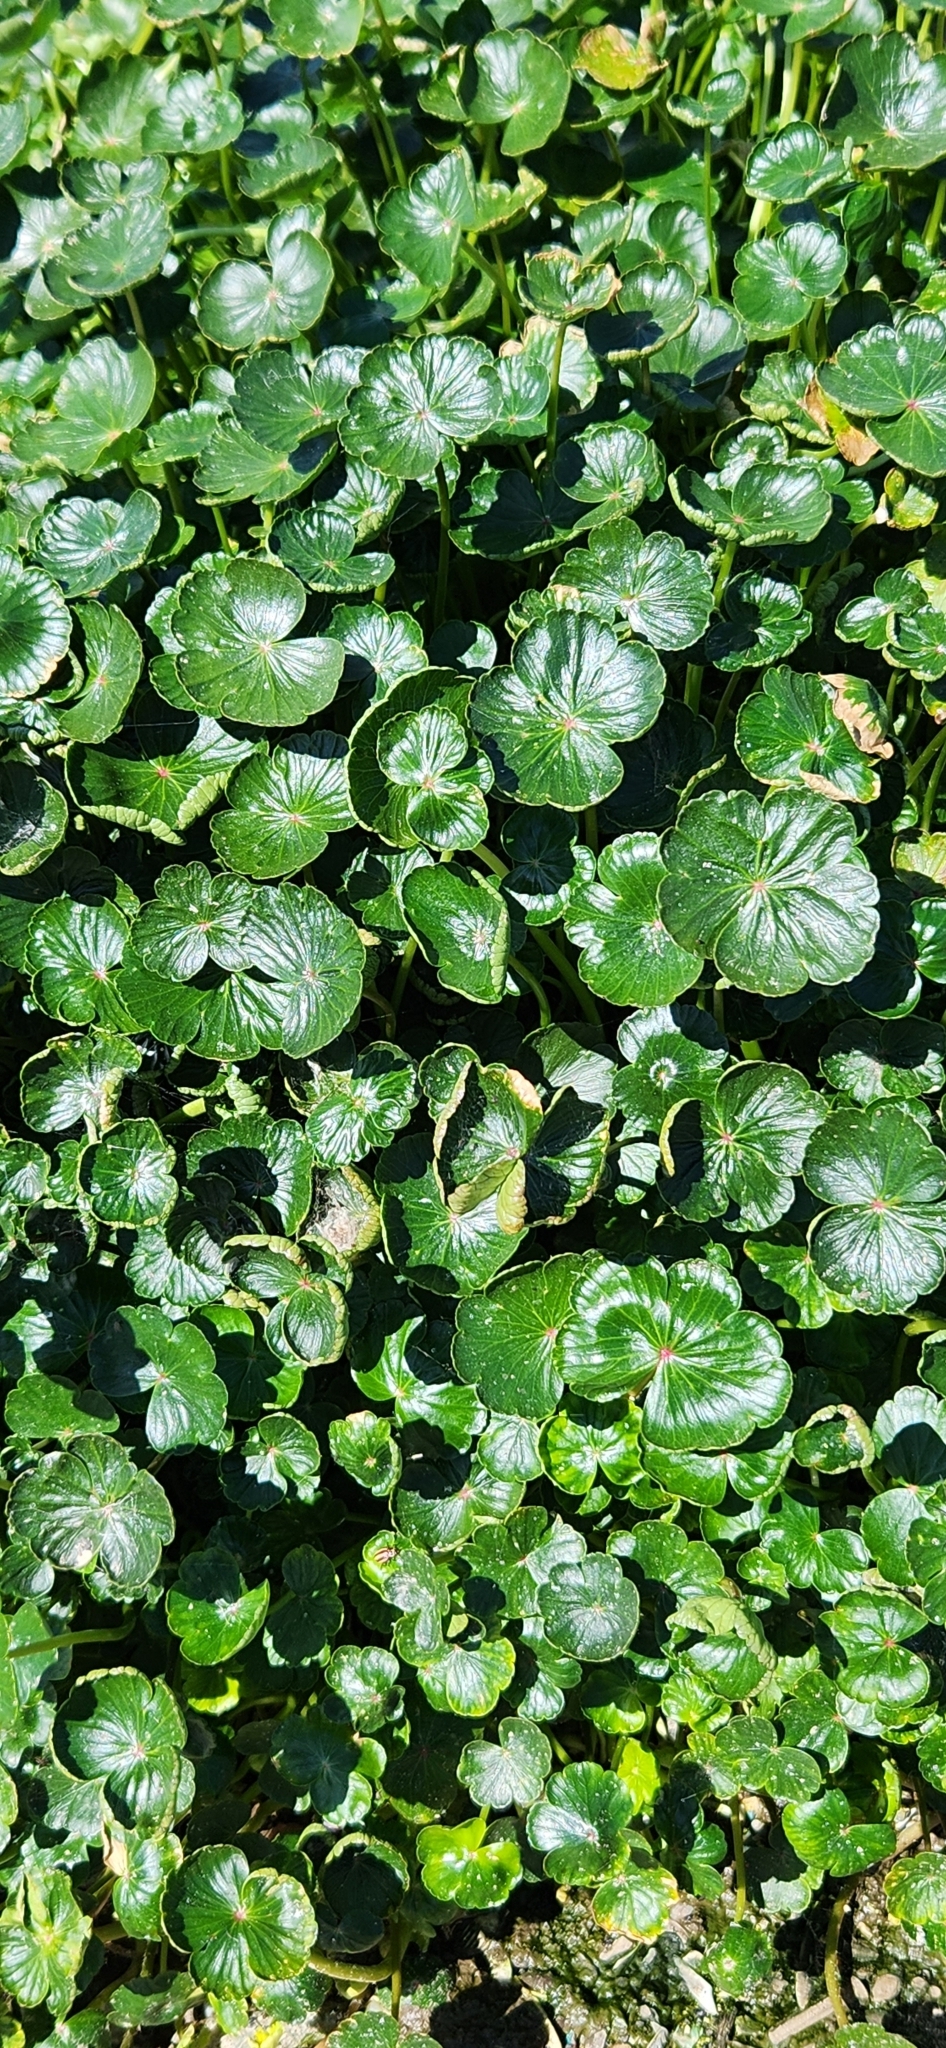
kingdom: Plantae
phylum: Tracheophyta
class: Magnoliopsida
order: Apiales
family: Araliaceae
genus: Hydrocotyle
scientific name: Hydrocotyle ranunculoides
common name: Floating pennywort
